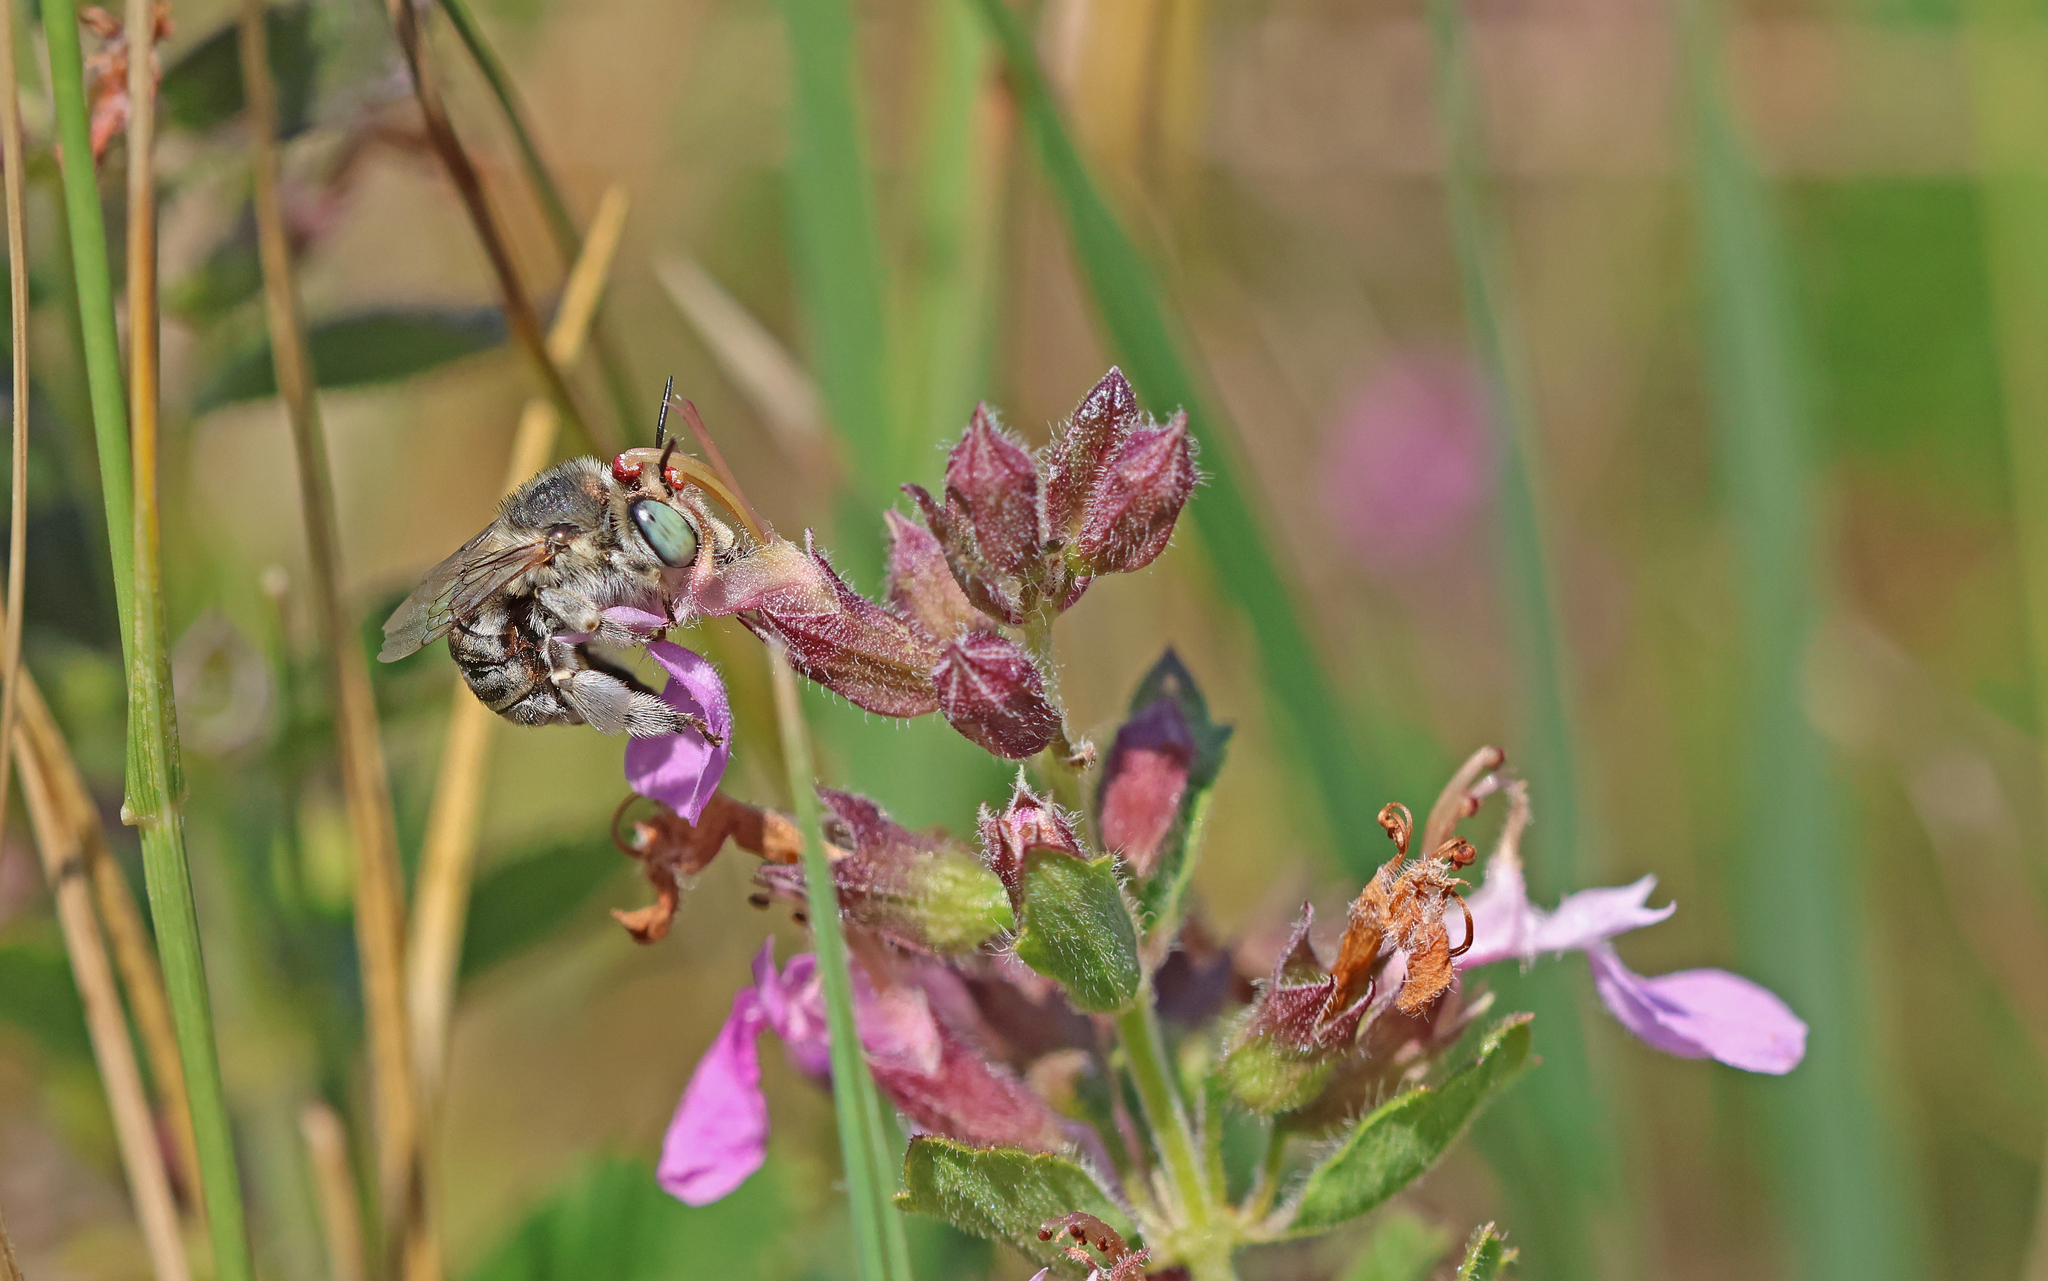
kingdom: Animalia
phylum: Arthropoda
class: Insecta
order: Hymenoptera
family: Apidae
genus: Anthophora
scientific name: Anthophora bimaculata
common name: Green-eyed flower bee
